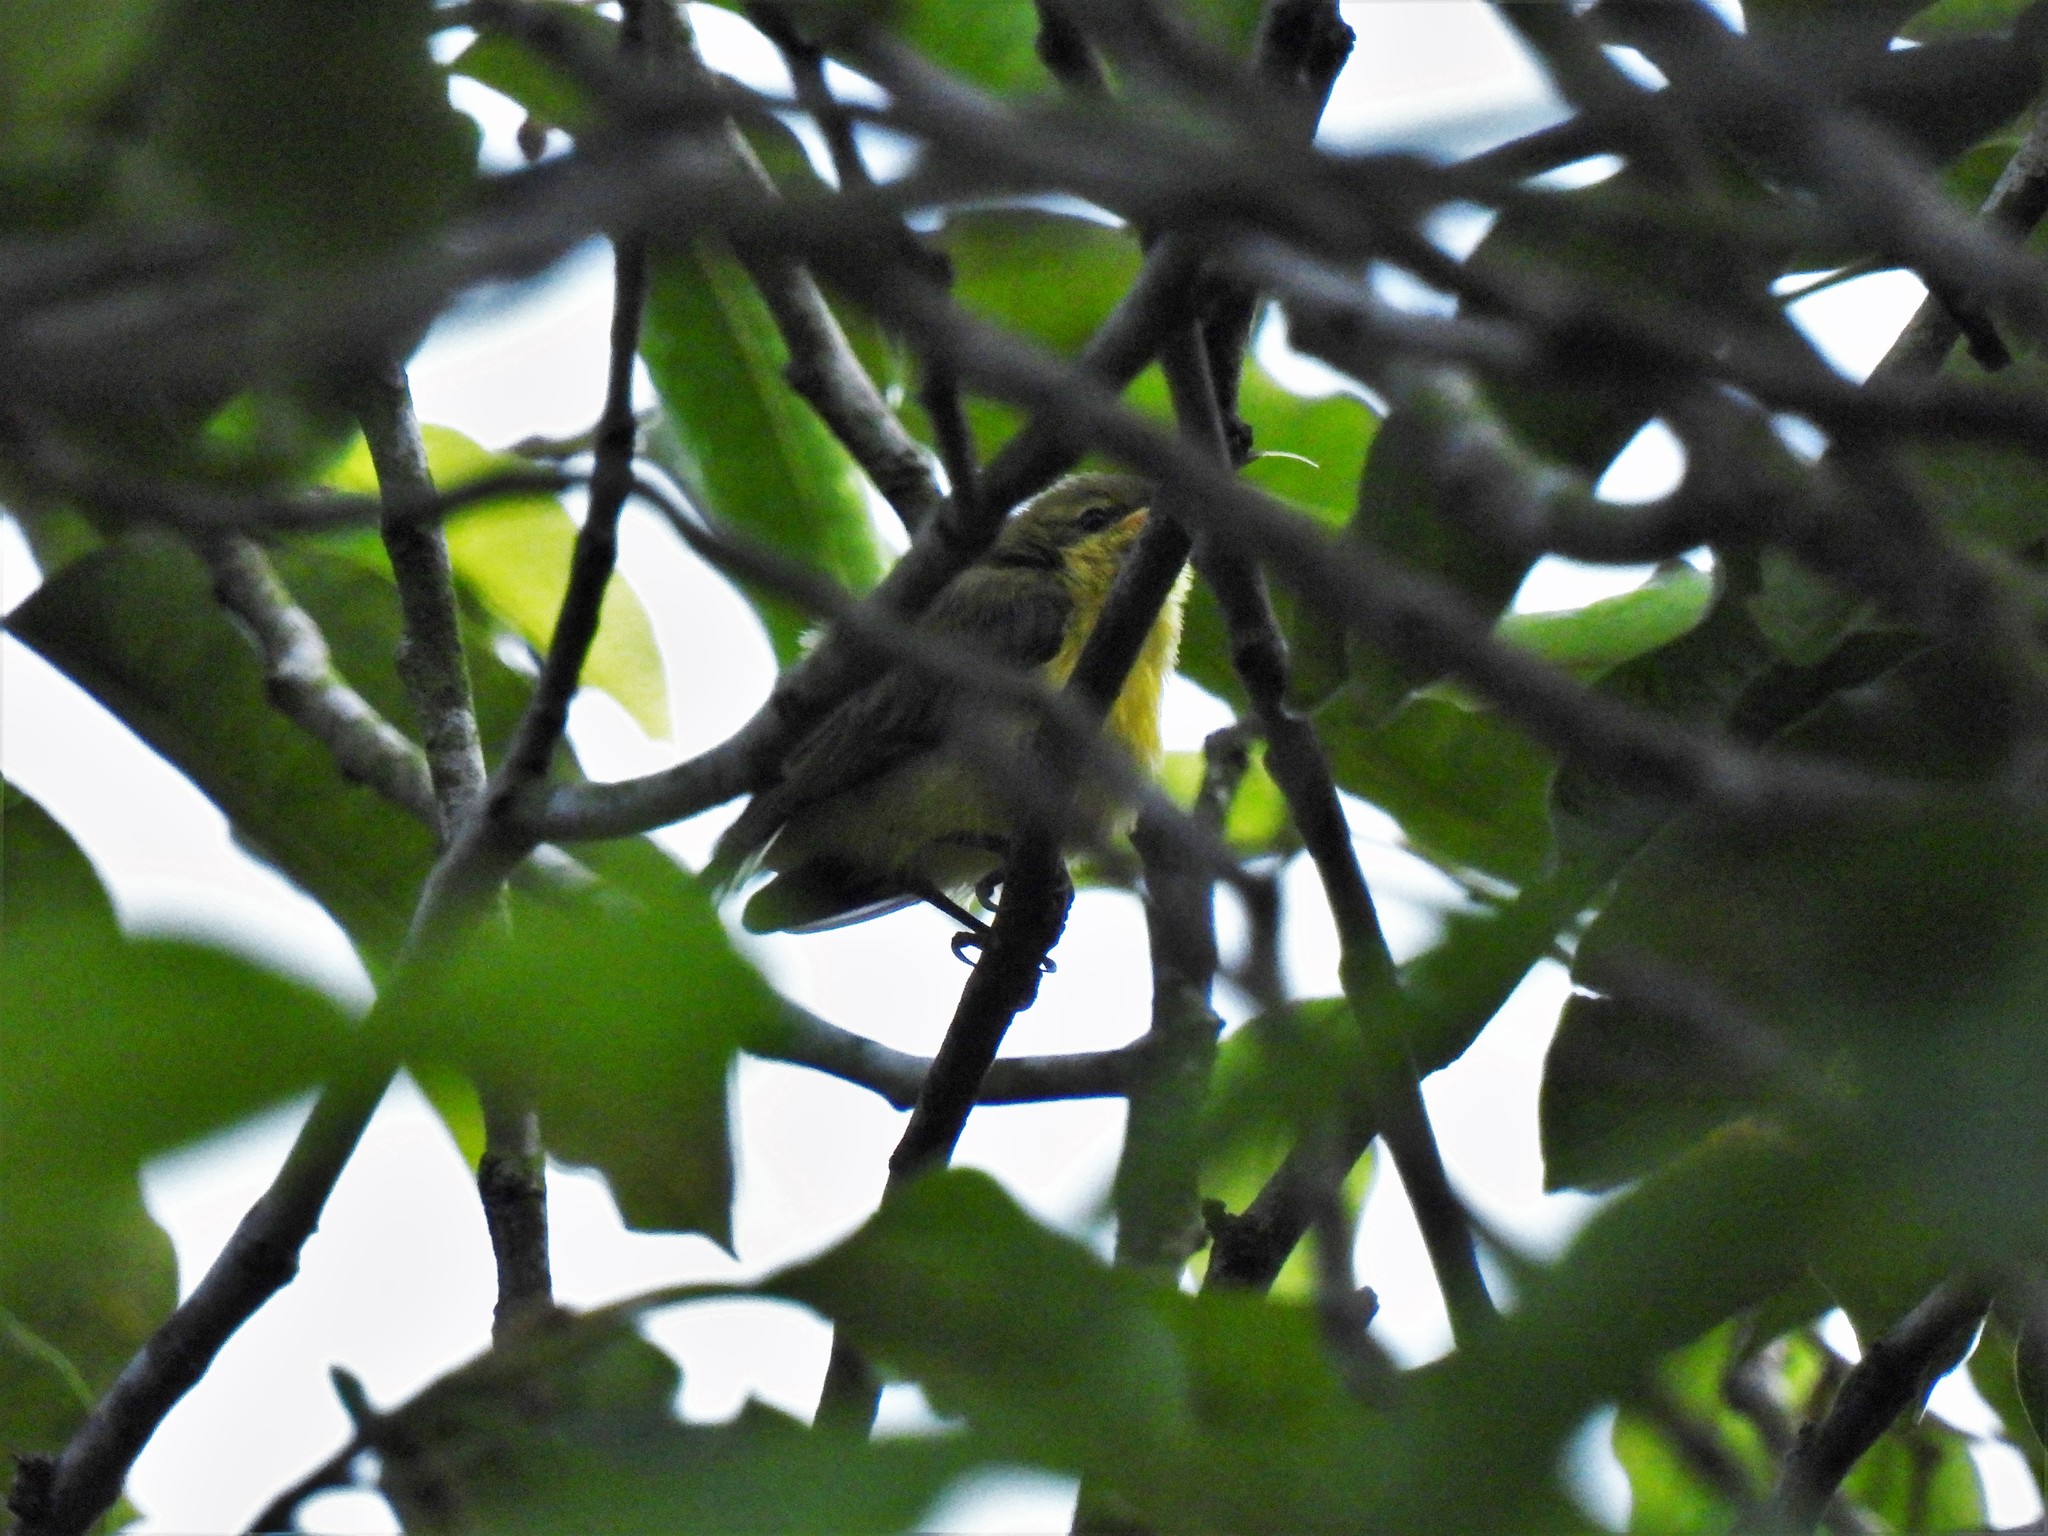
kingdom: Animalia
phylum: Chordata
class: Aves
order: Passeriformes
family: Nectariniidae
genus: Cinnyris
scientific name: Cinnyris
